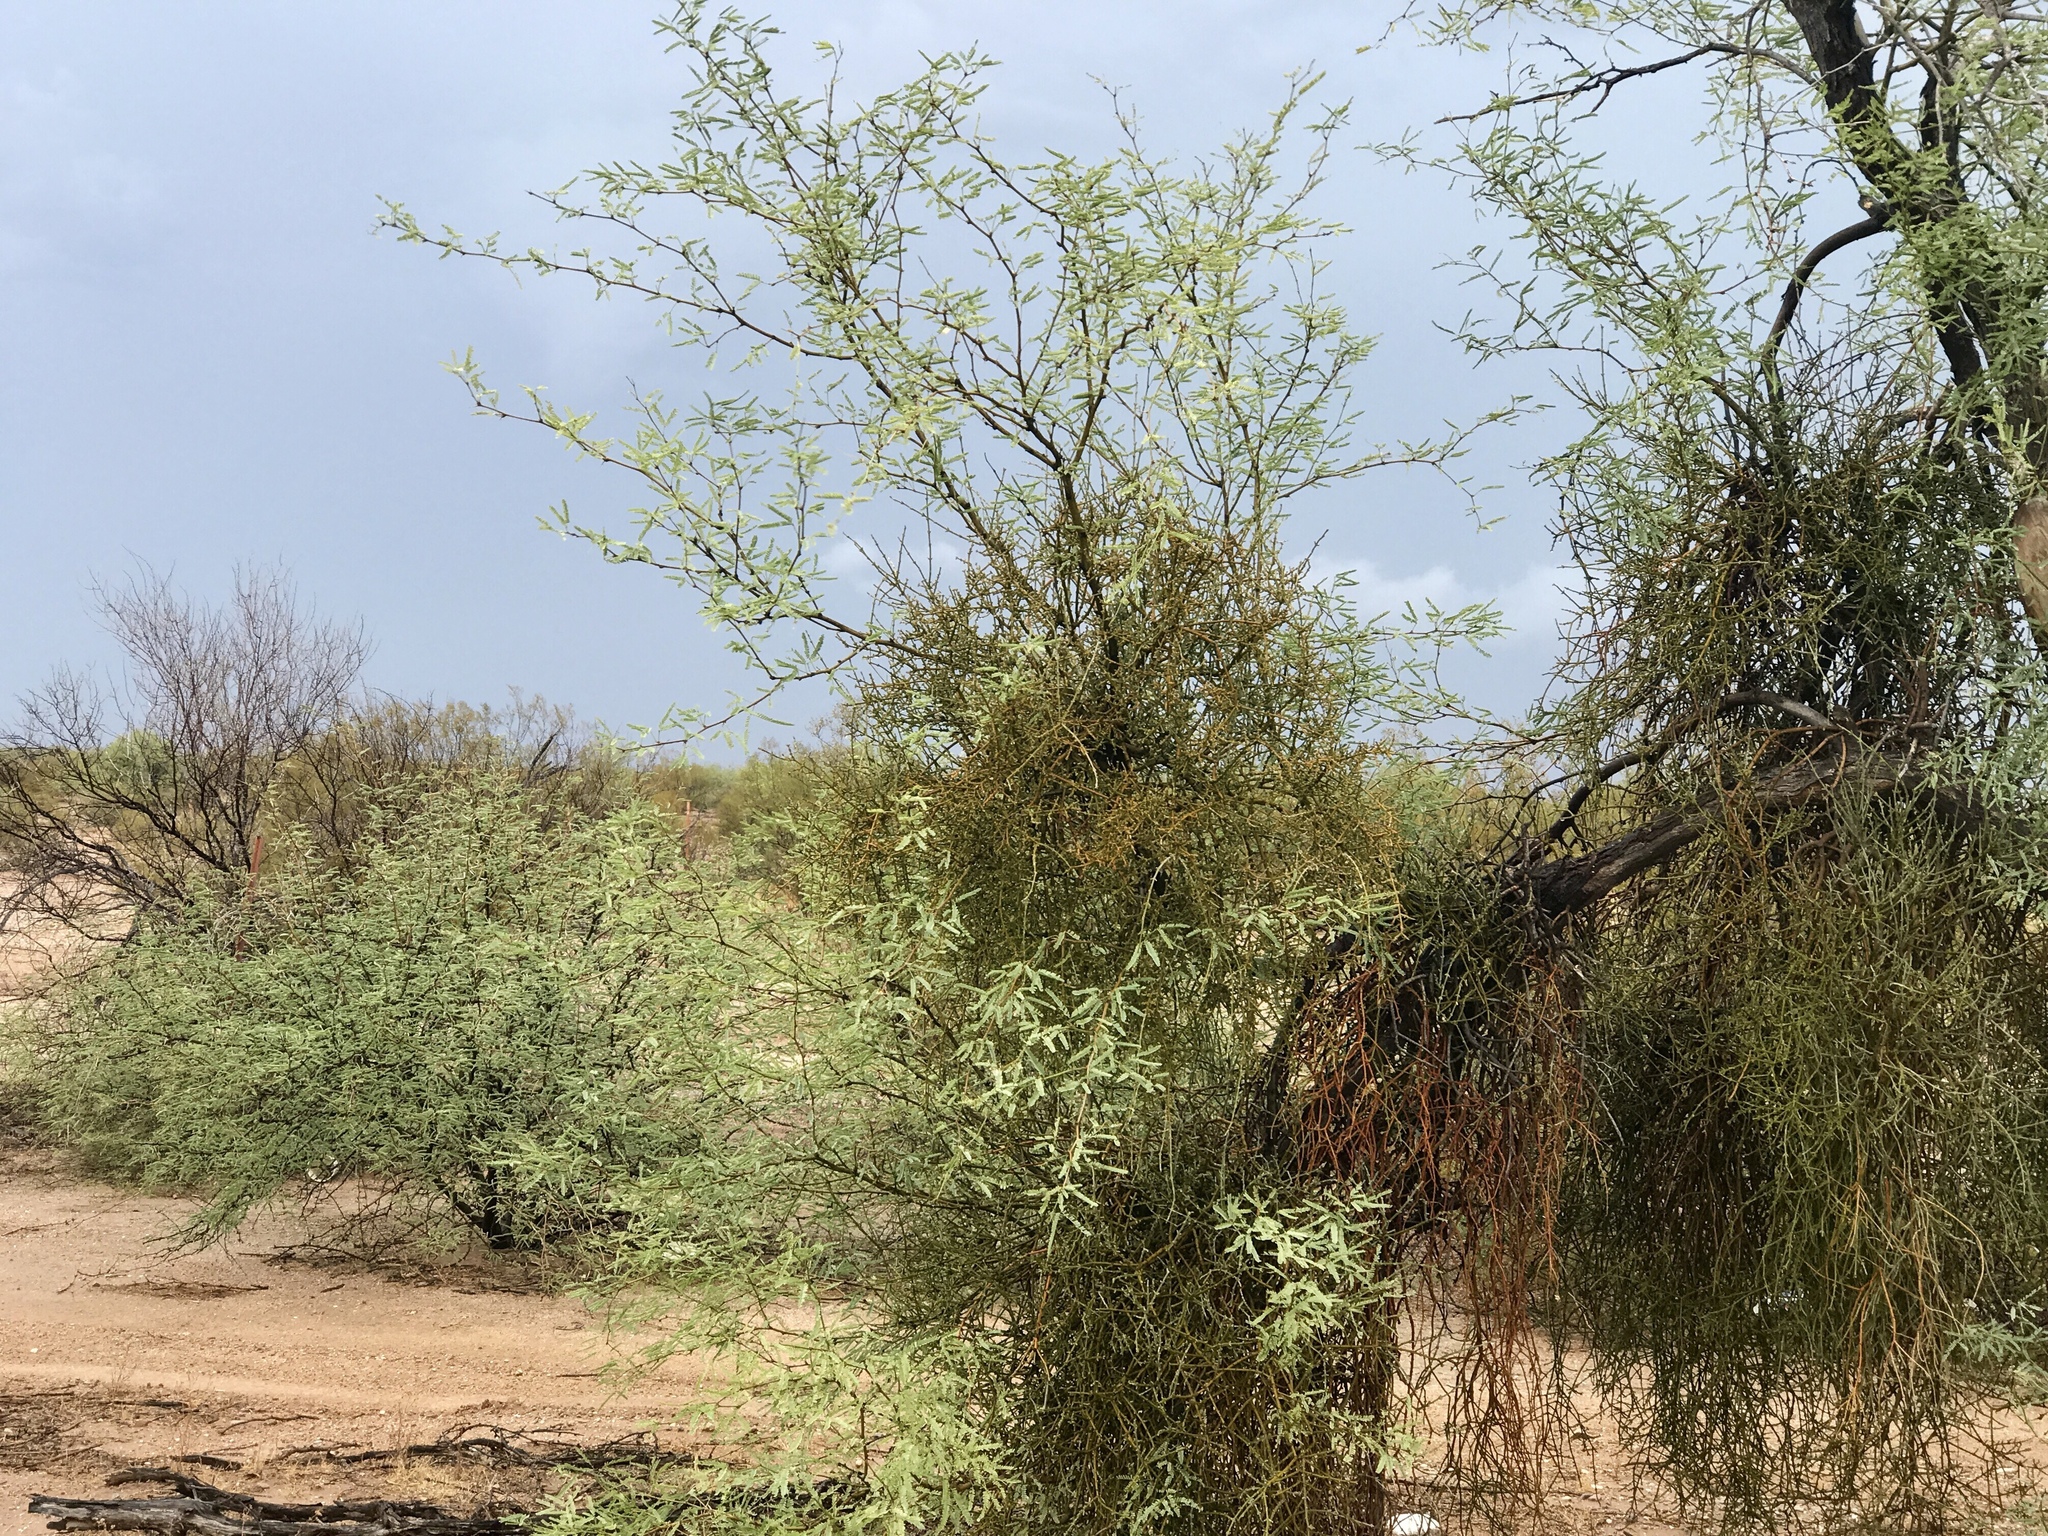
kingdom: Plantae
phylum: Tracheophyta
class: Magnoliopsida
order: Santalales
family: Viscaceae
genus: Phoradendron
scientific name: Phoradendron californicum
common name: Acacia mistletoe
